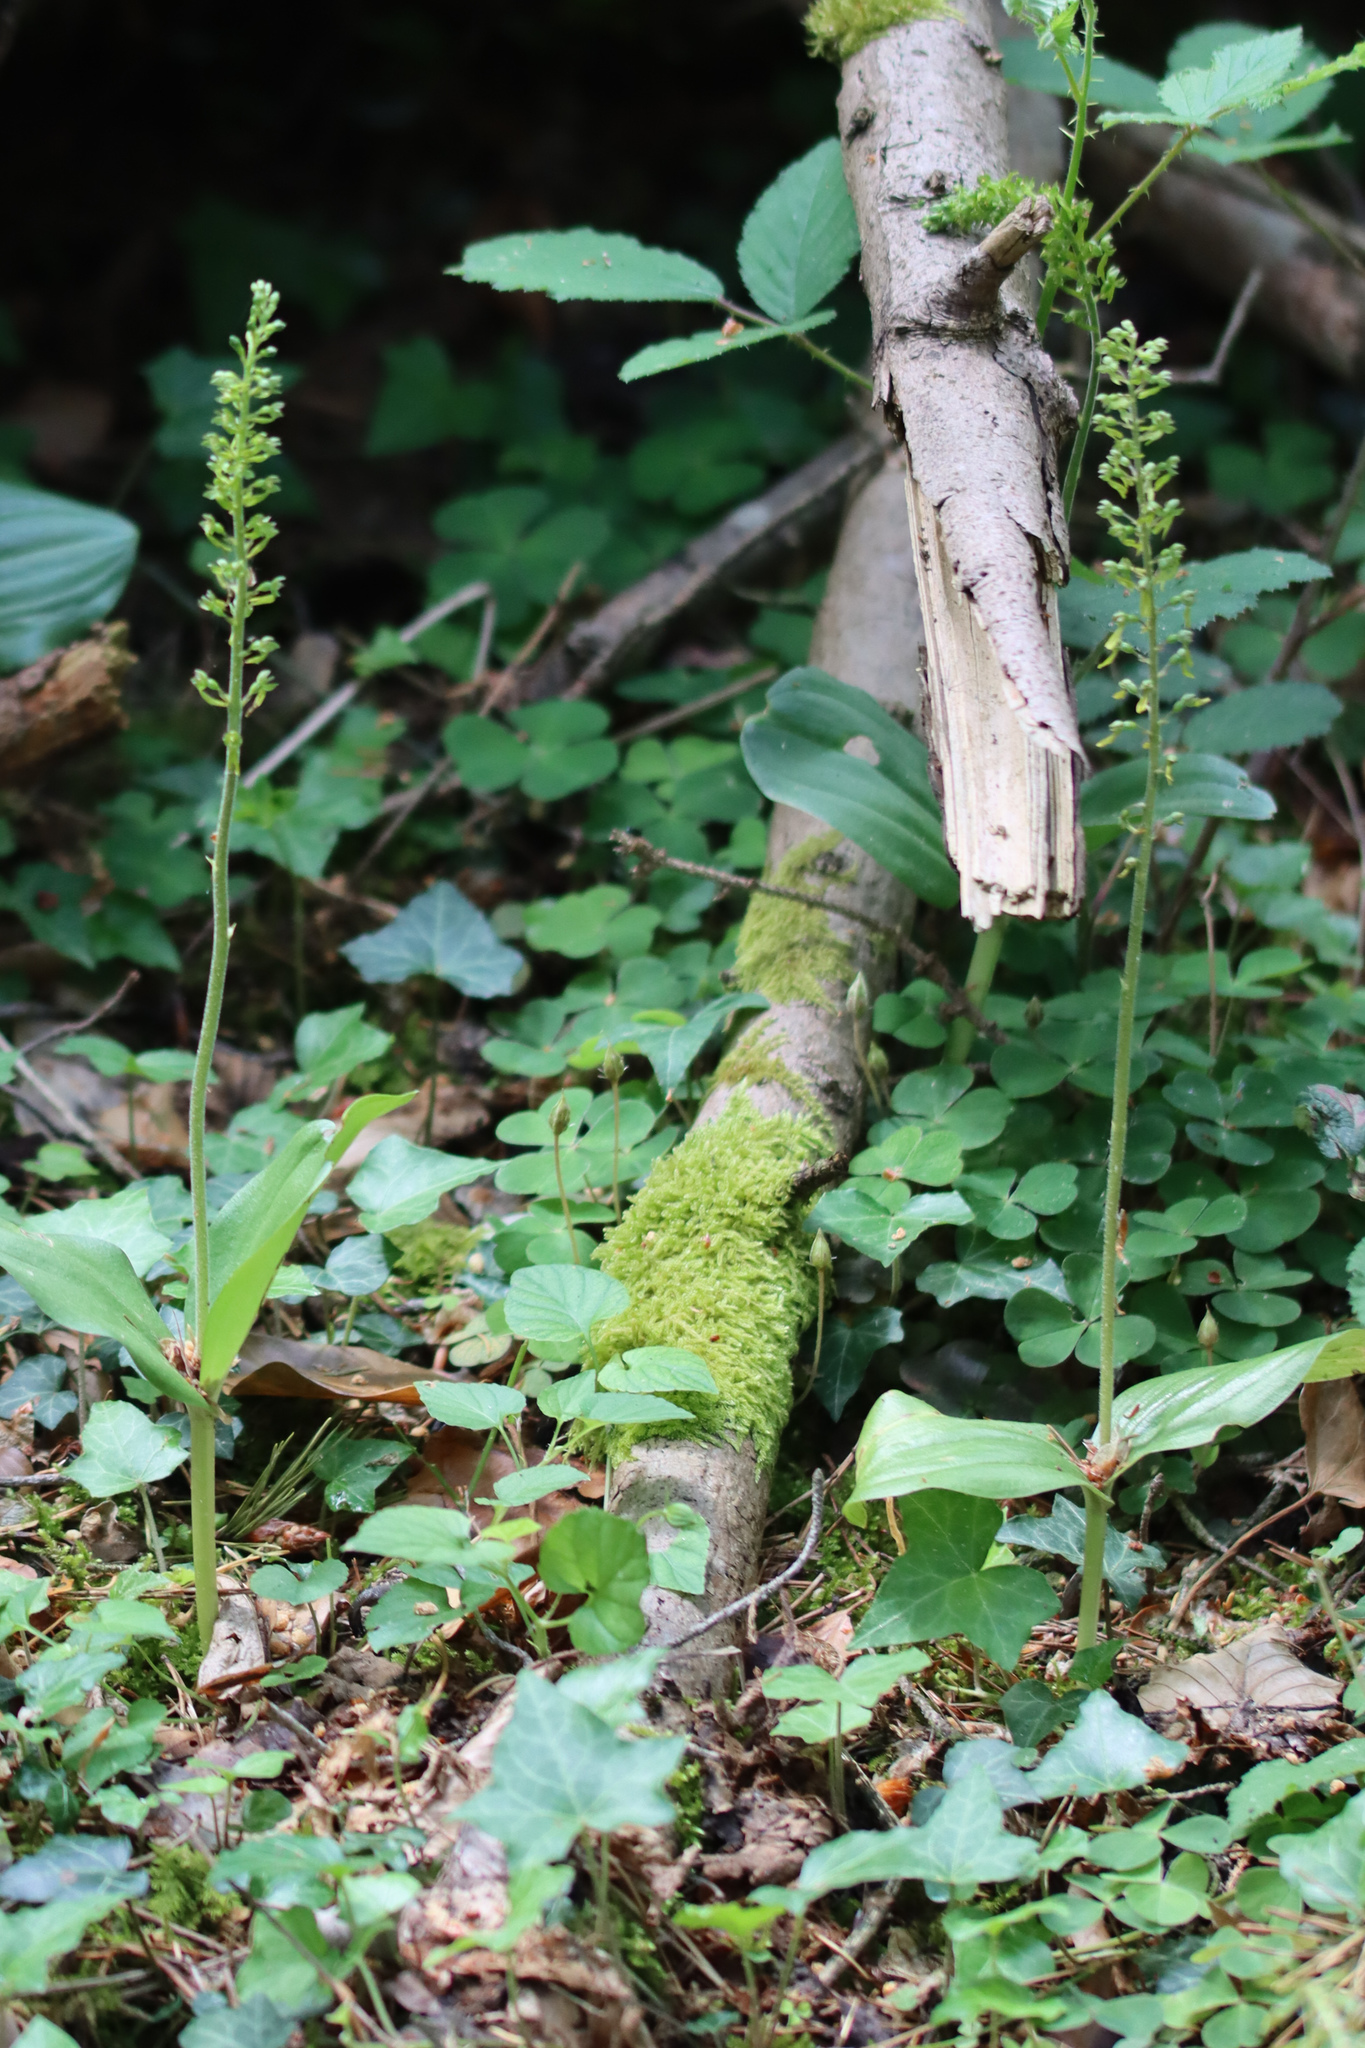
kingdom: Plantae
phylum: Tracheophyta
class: Liliopsida
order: Asparagales
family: Orchidaceae
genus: Neottia
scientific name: Neottia ovata
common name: Common twayblade
